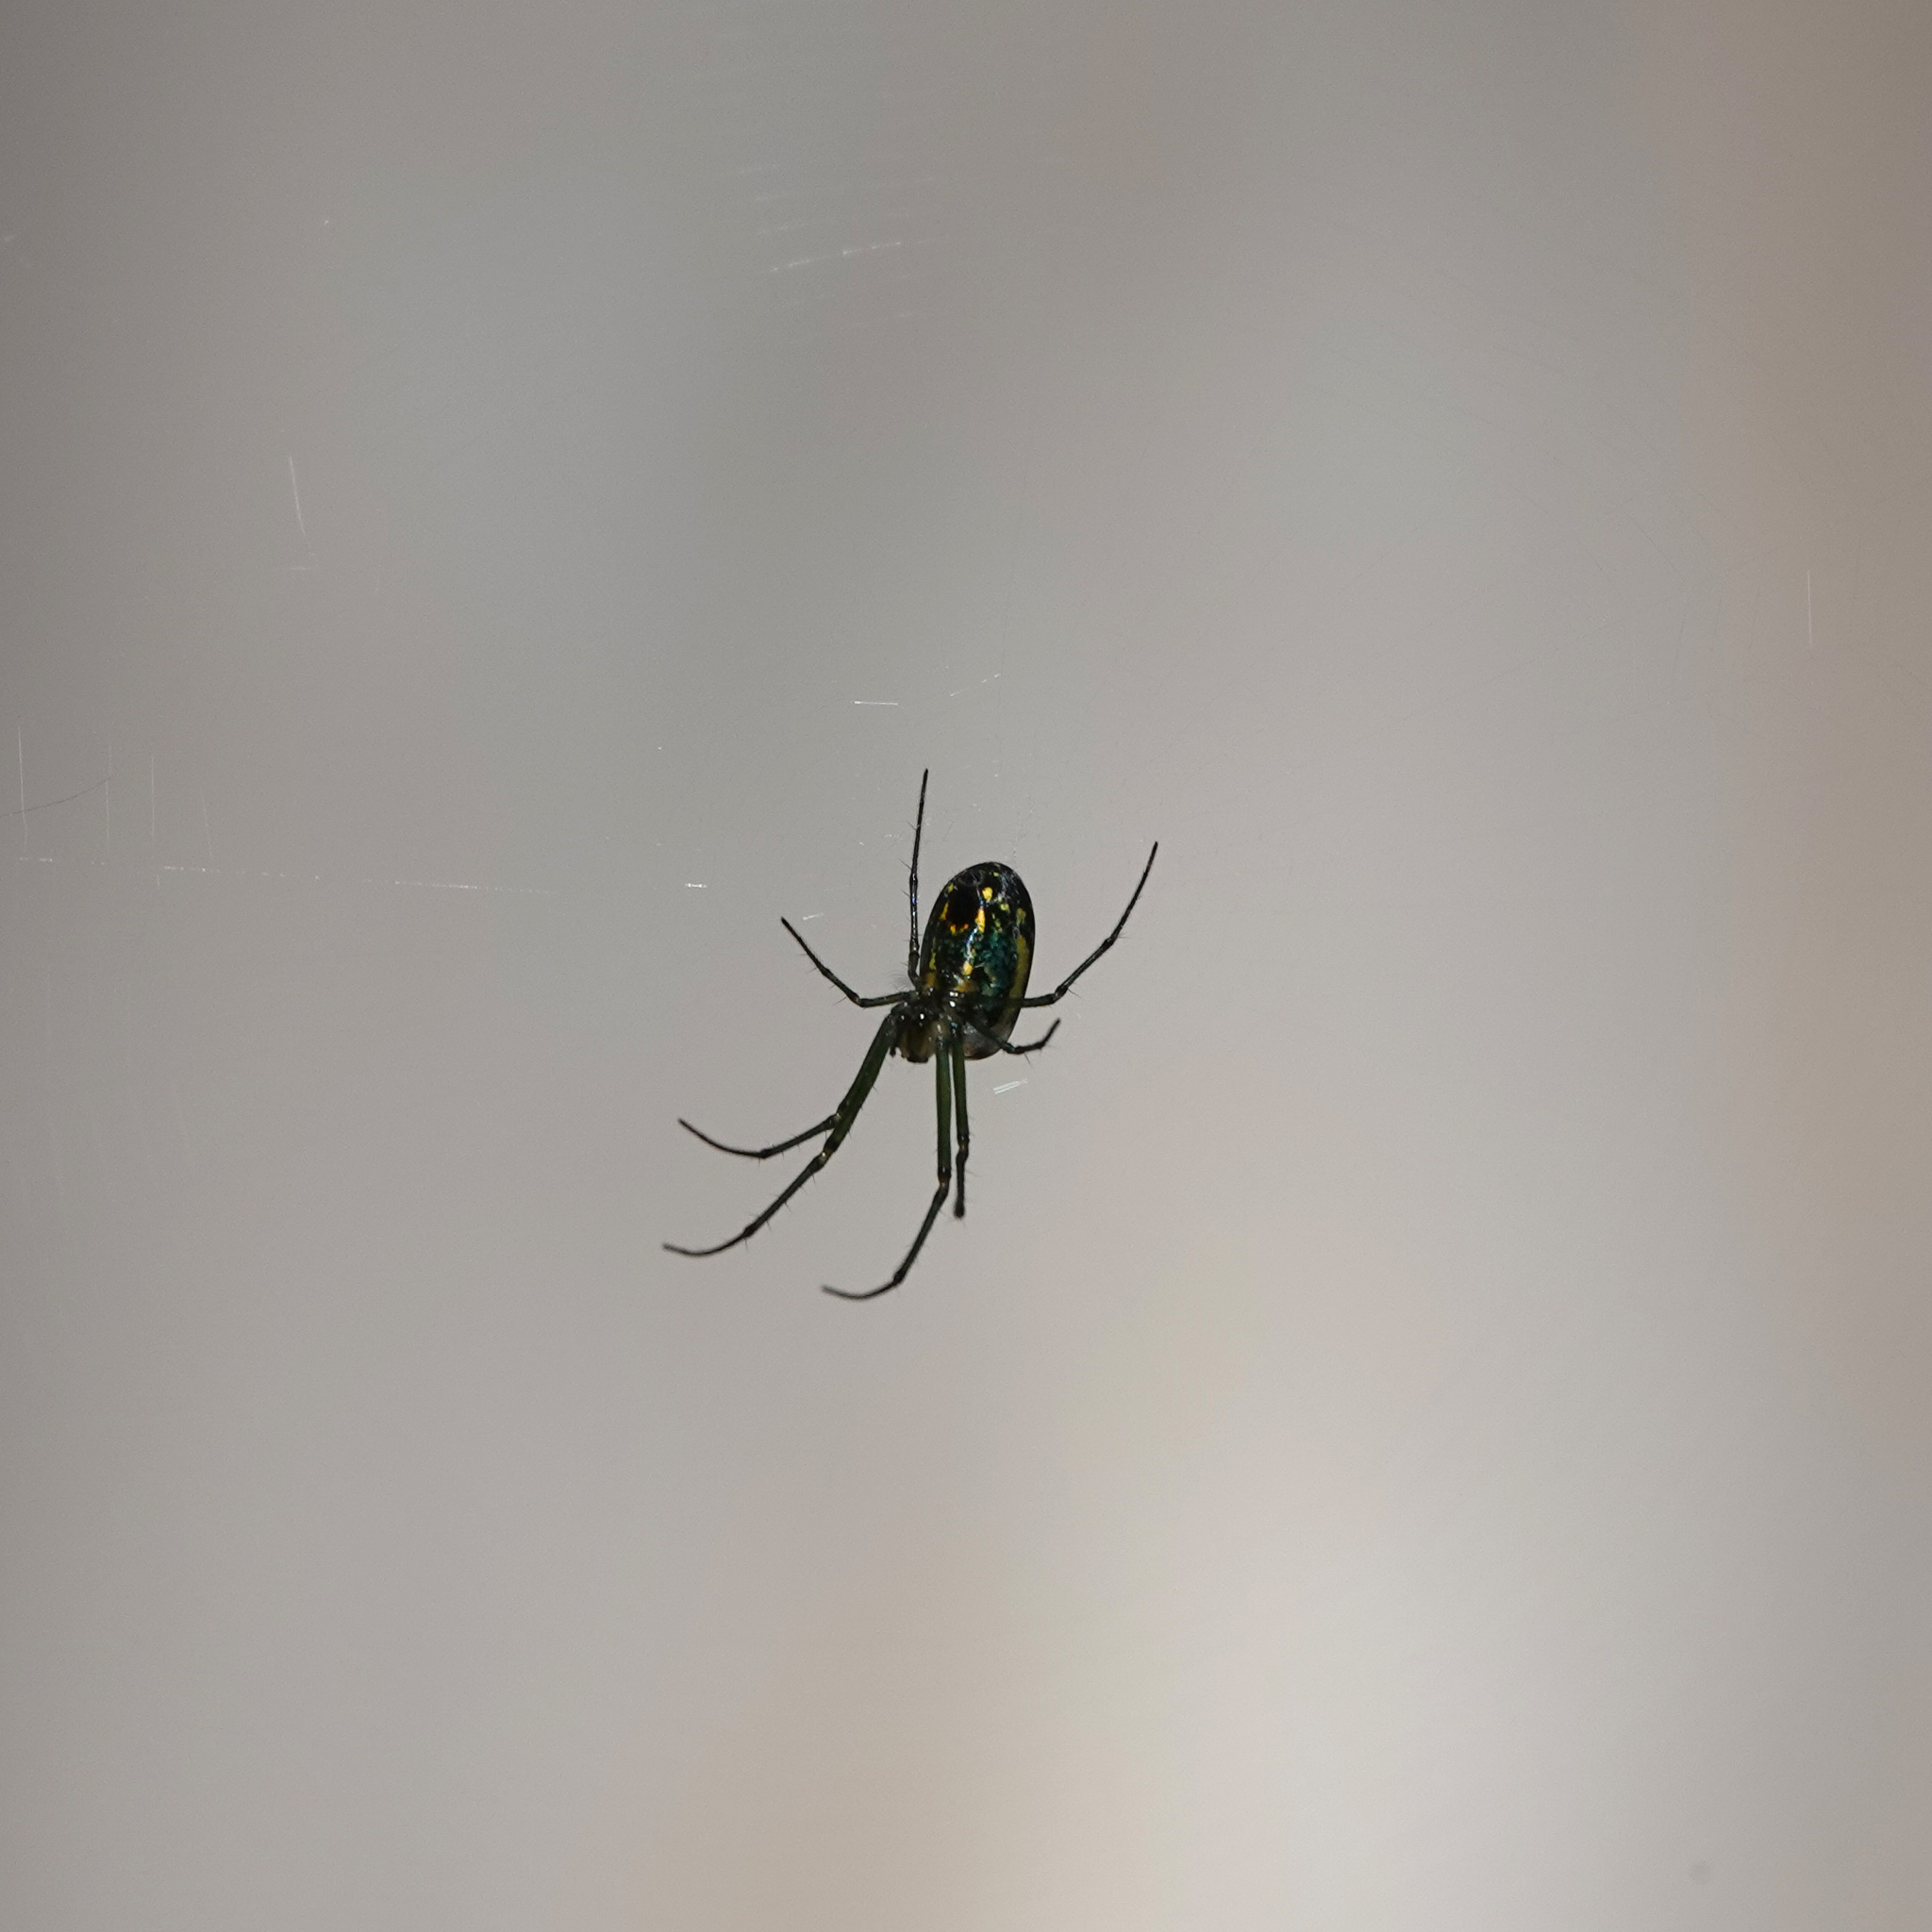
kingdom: Animalia
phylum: Arthropoda
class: Arachnida
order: Araneae
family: Tetragnathidae
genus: Leucauge
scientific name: Leucauge venusta
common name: Longjawed orb weavers
